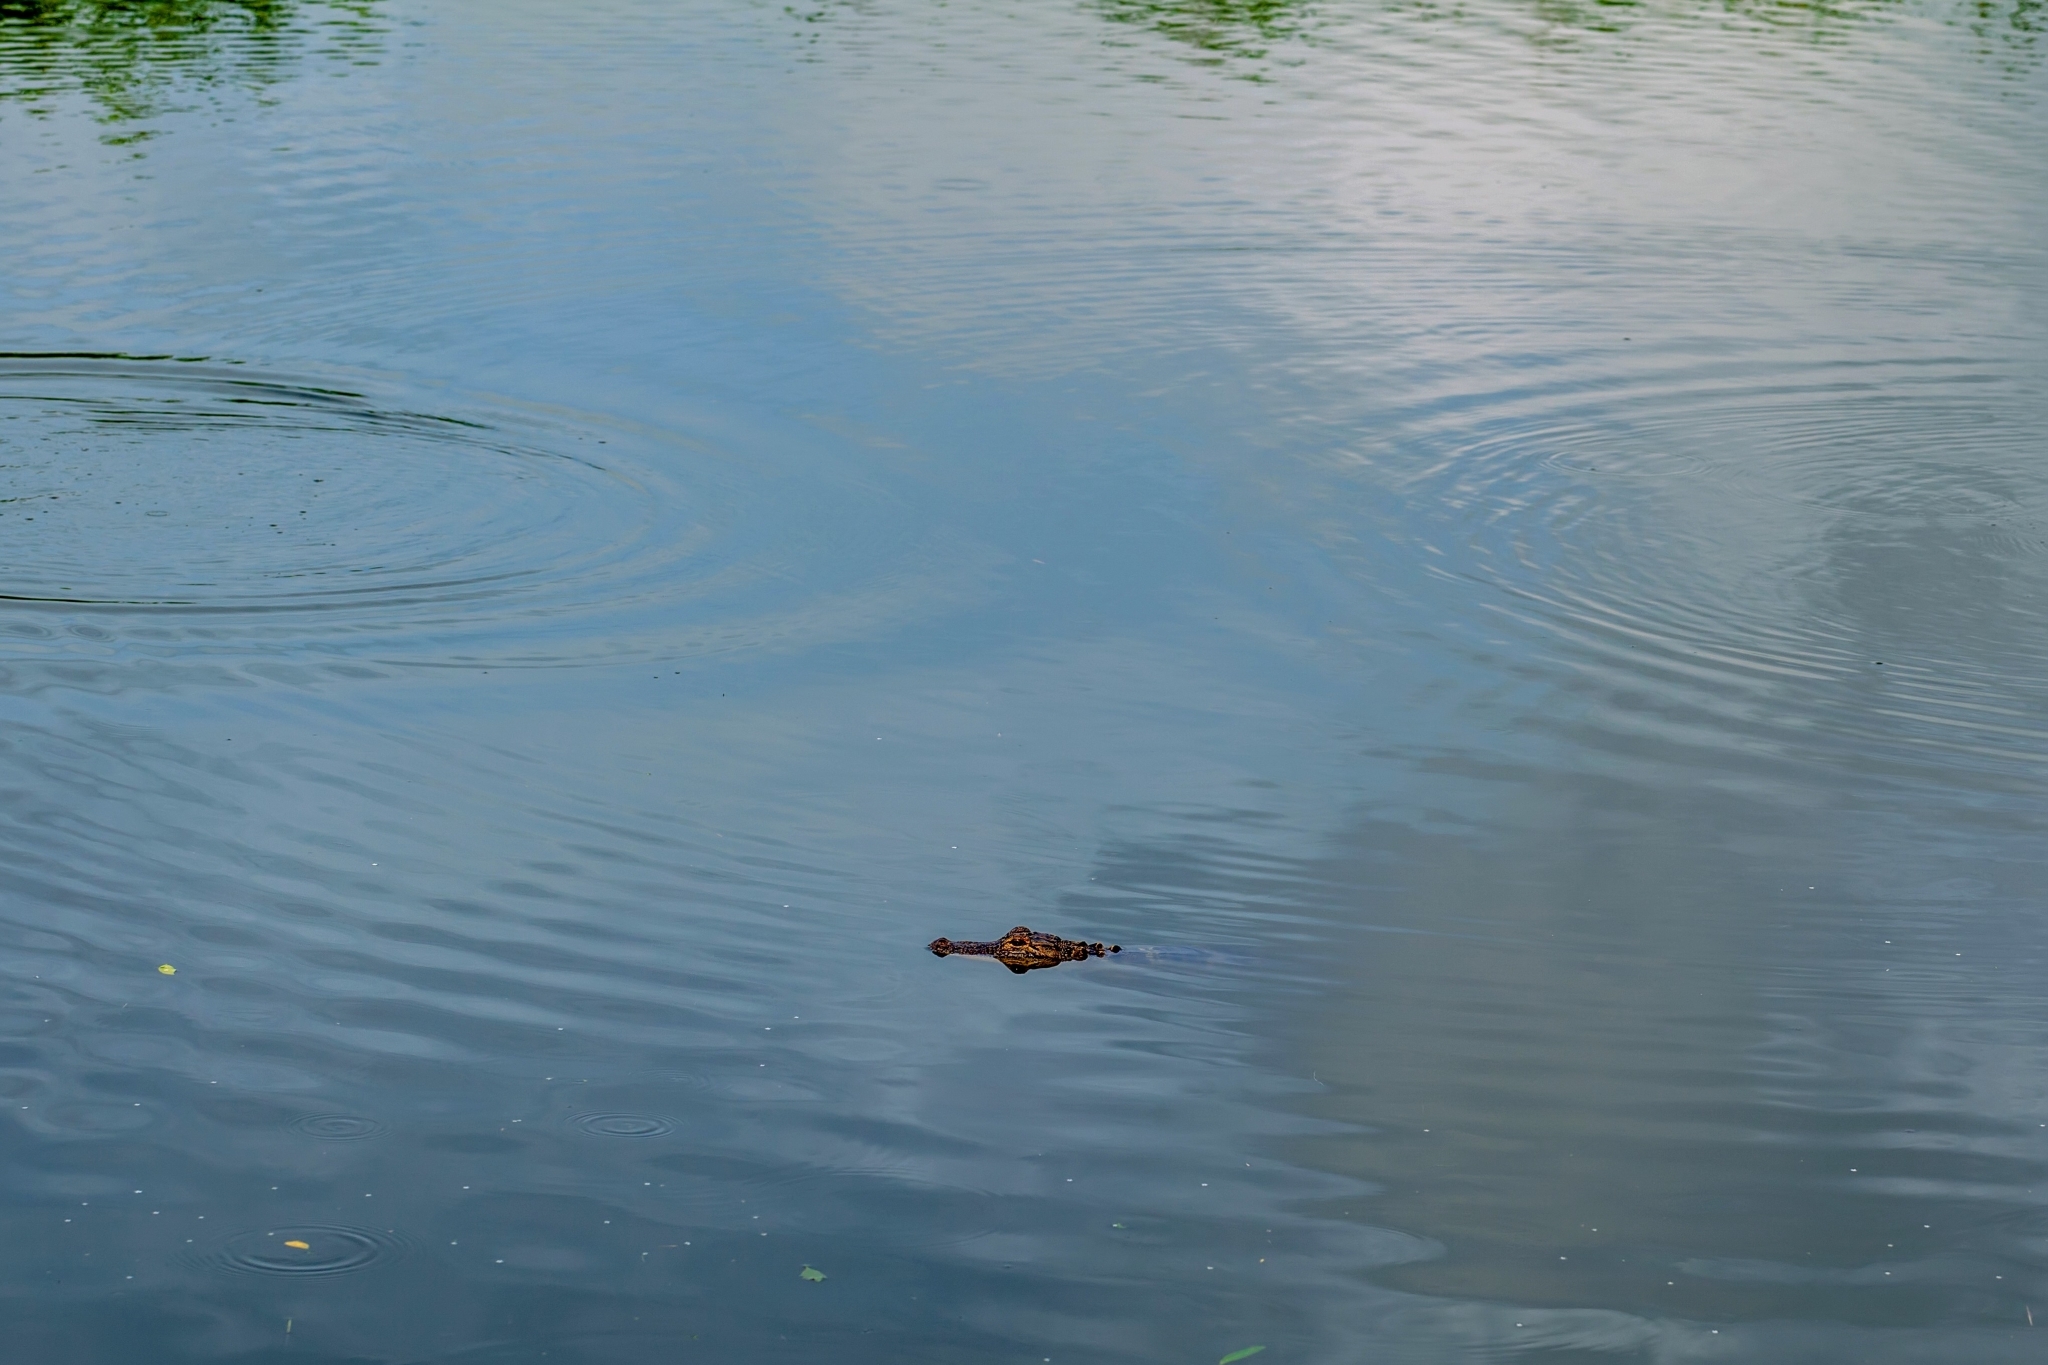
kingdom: Animalia
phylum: Chordata
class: Crocodylia
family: Alligatoridae
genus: Alligator
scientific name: Alligator mississippiensis
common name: American alligator
